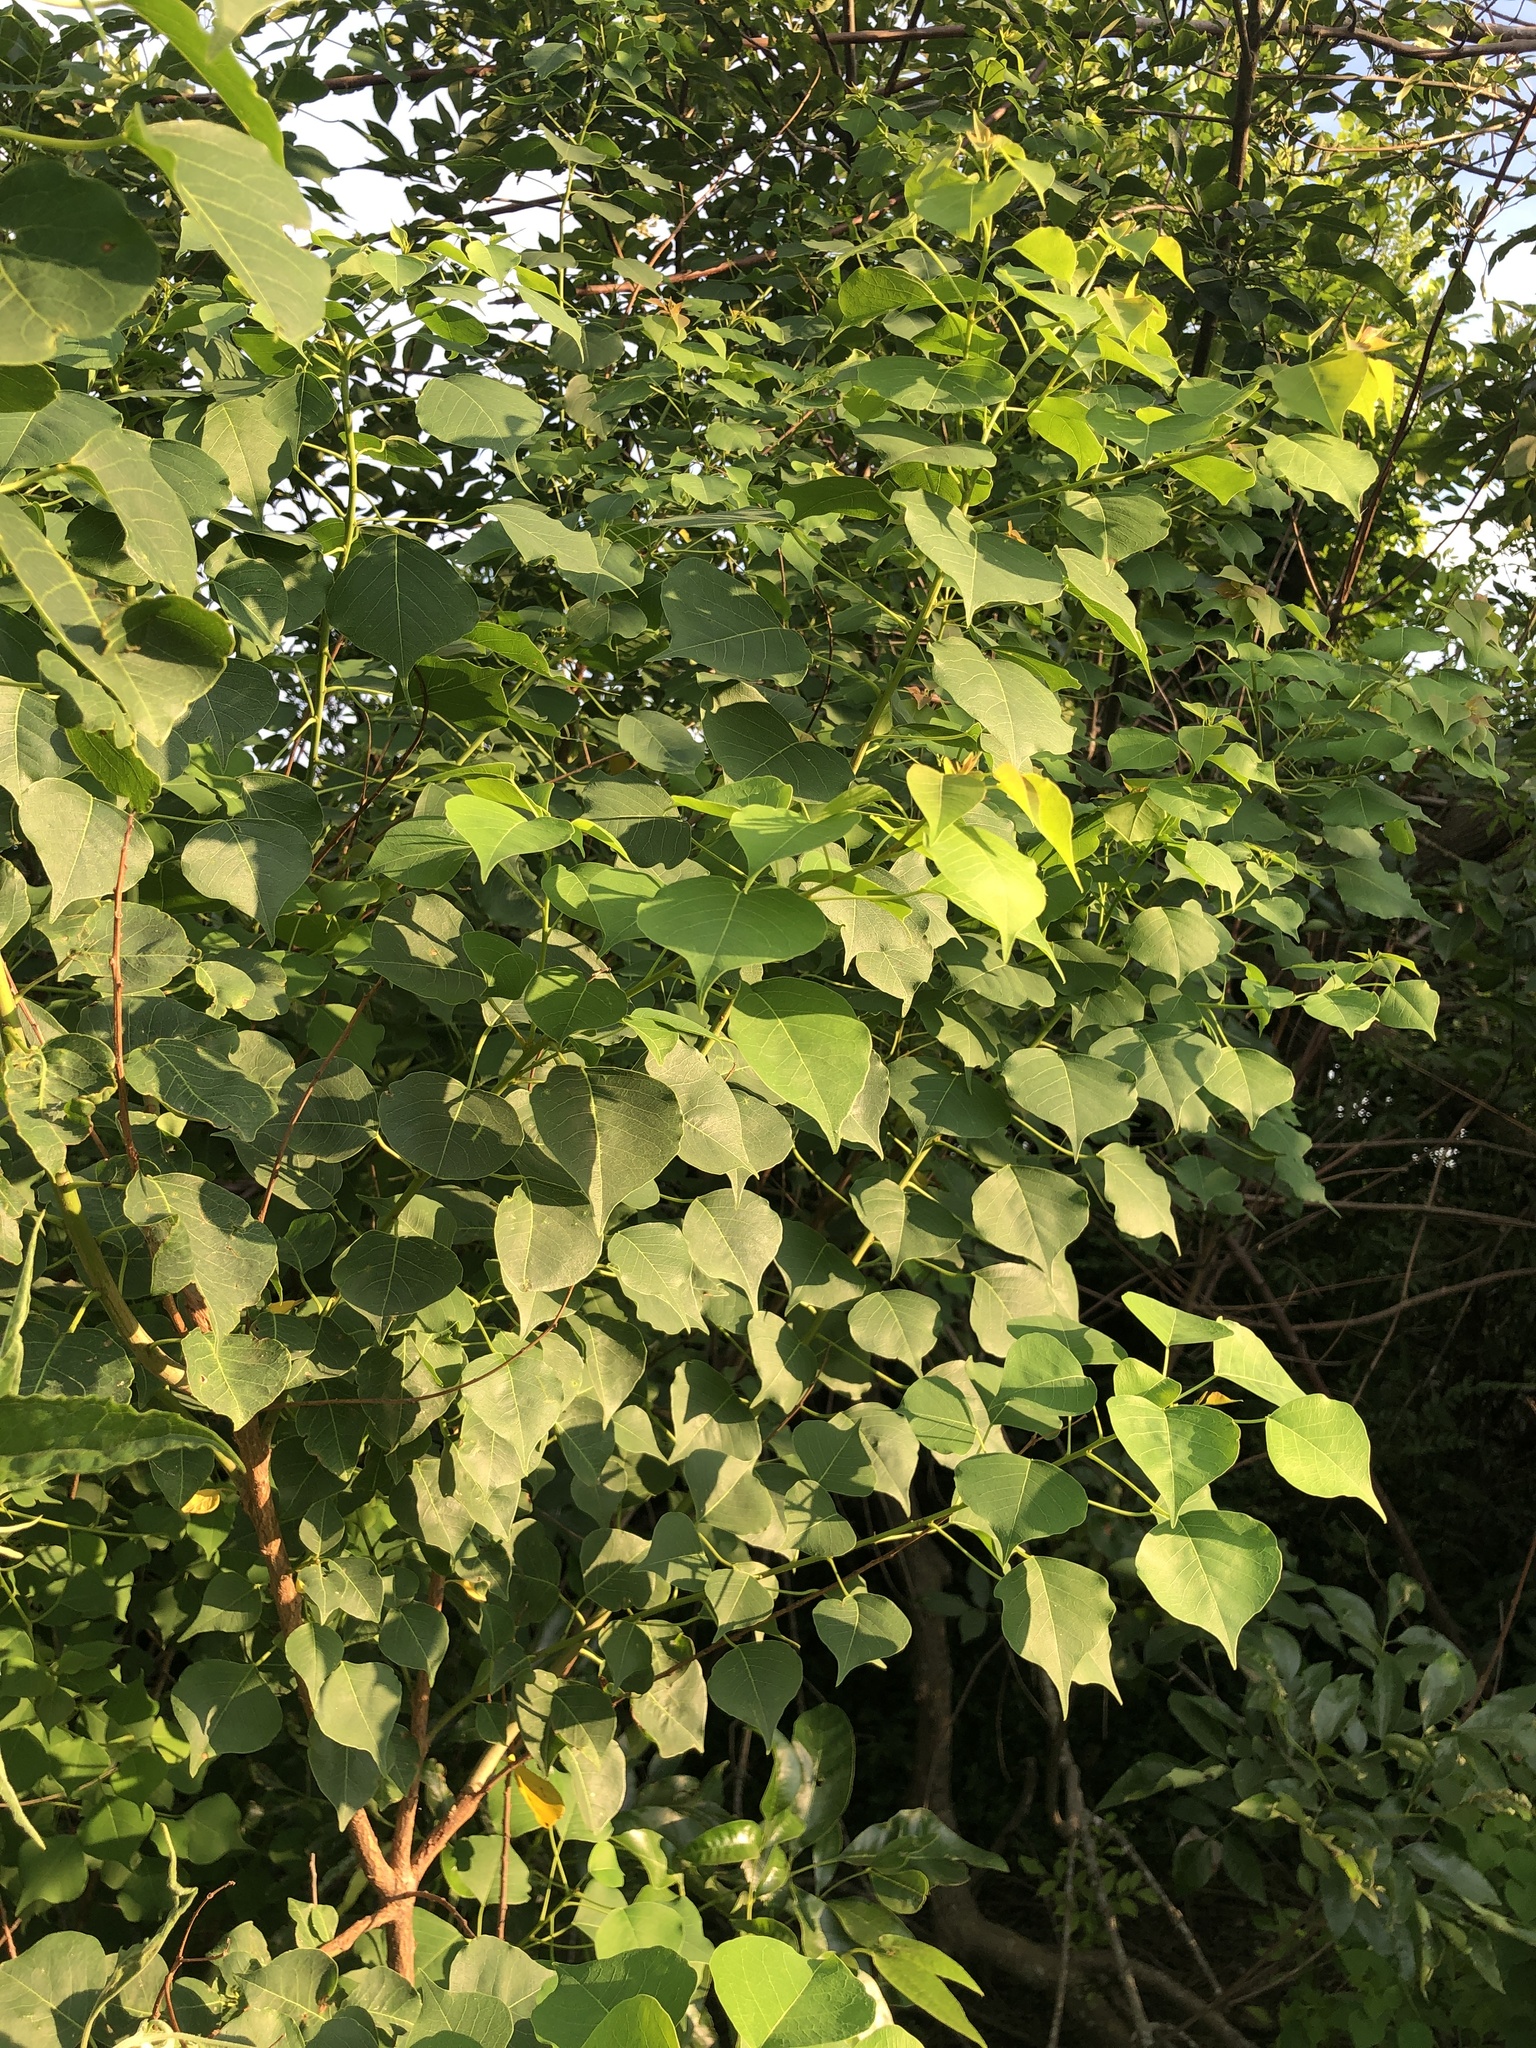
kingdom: Plantae
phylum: Tracheophyta
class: Magnoliopsida
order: Malpighiales
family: Euphorbiaceae
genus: Triadica
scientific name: Triadica sebifera
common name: Chinese tallow
